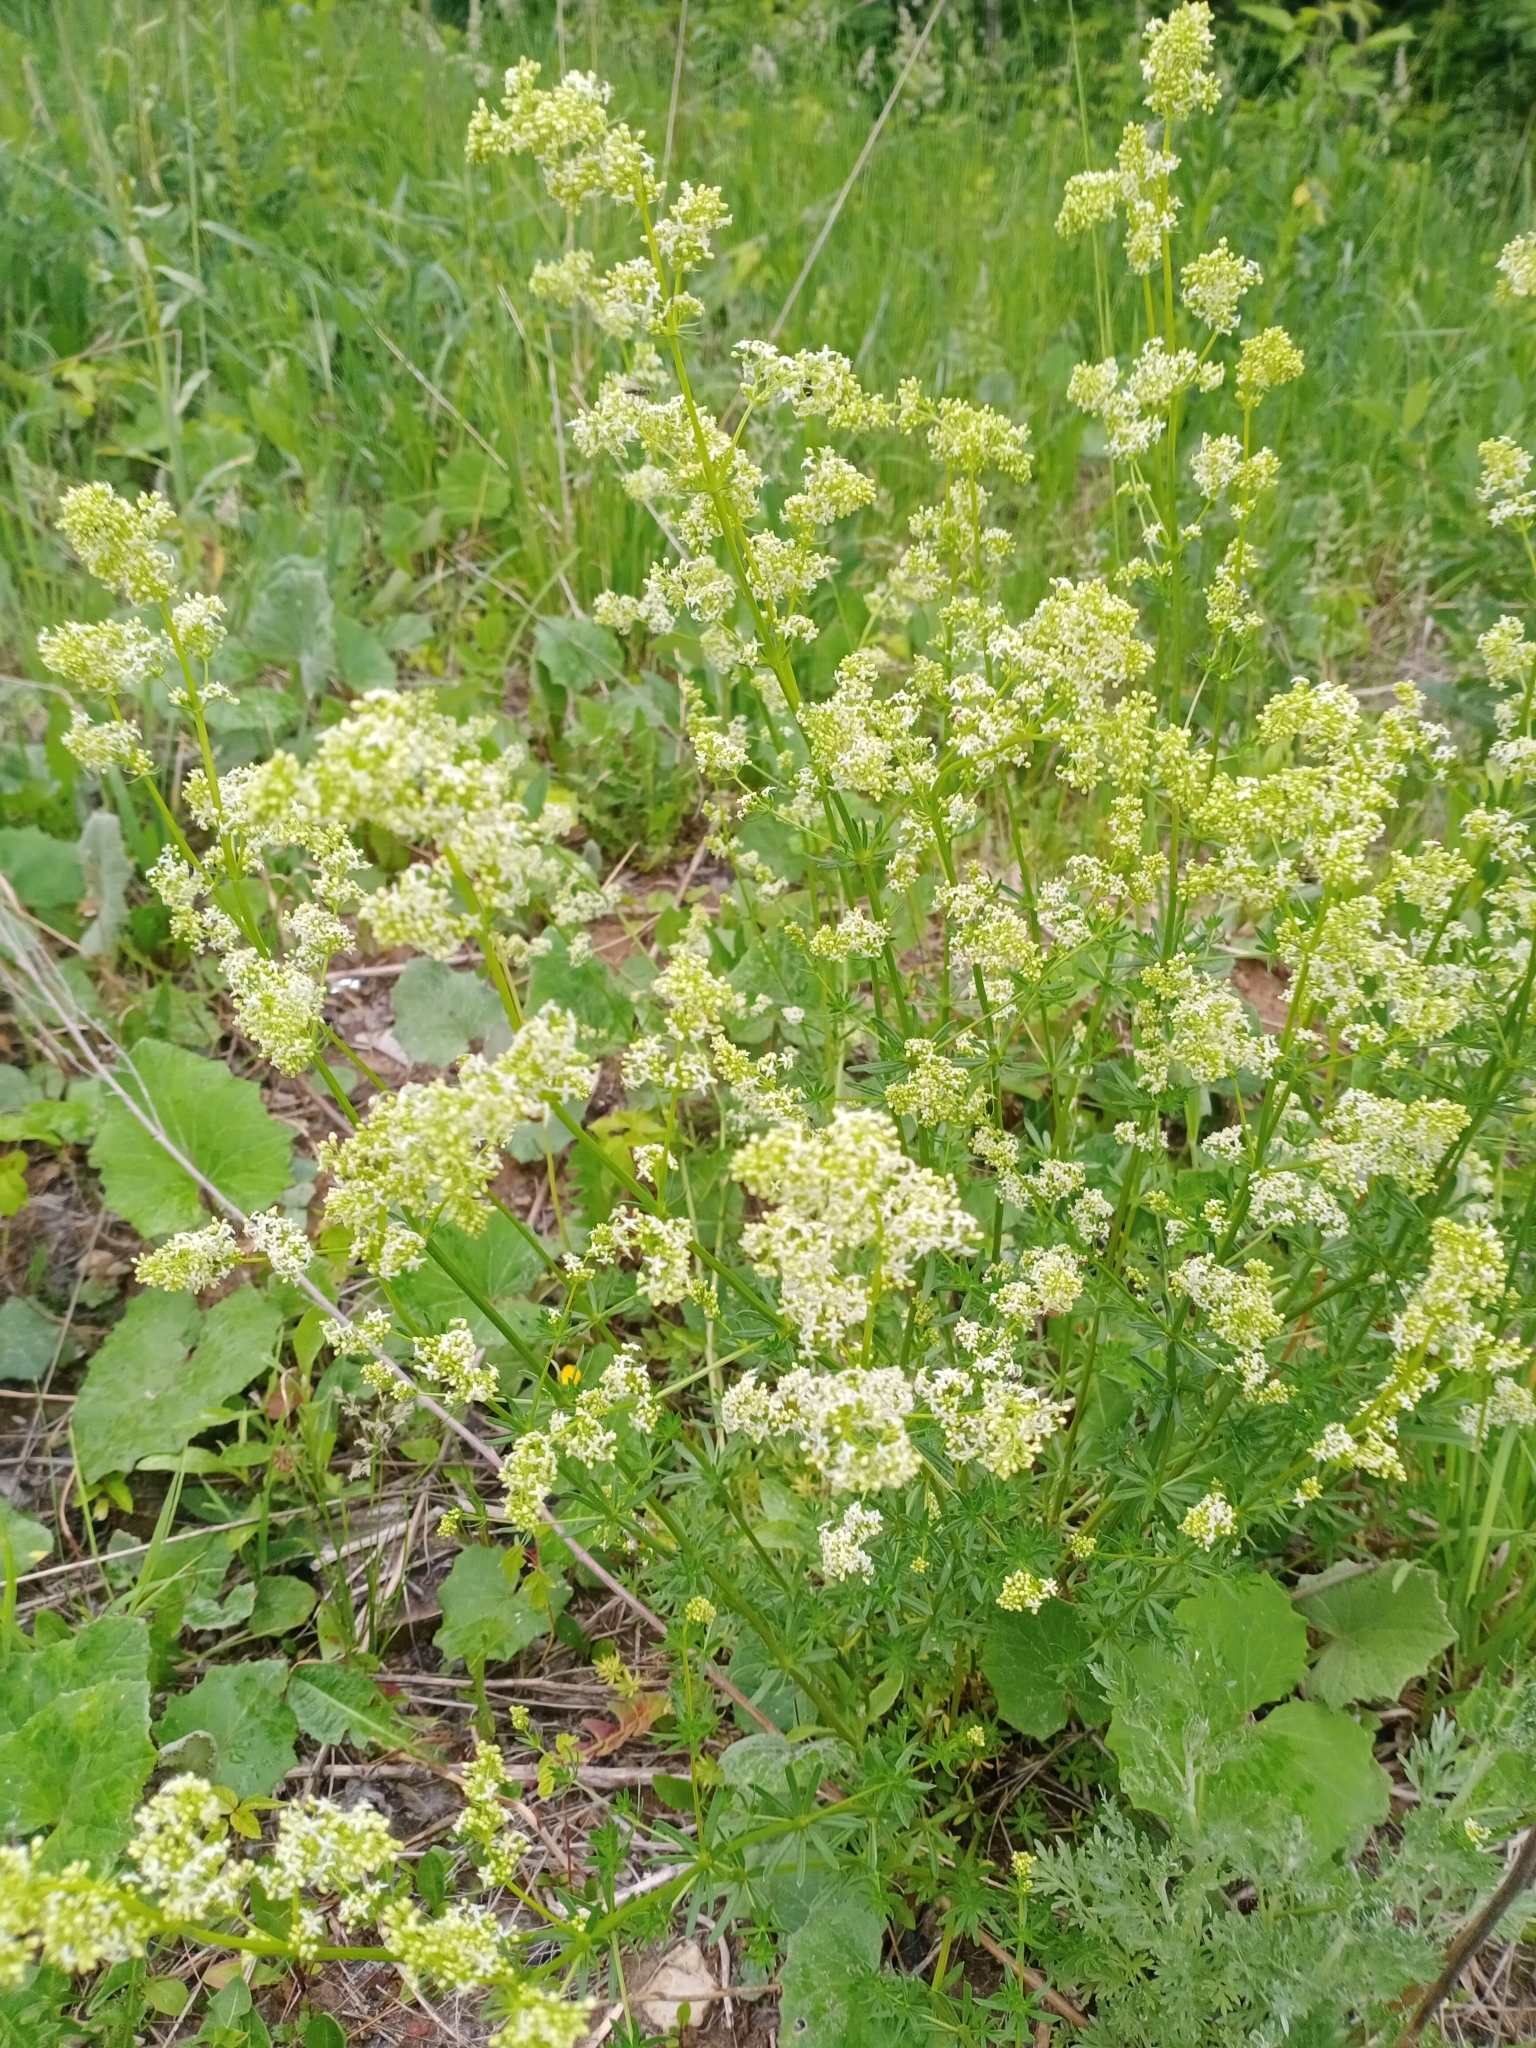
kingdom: Plantae
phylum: Tracheophyta
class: Magnoliopsida
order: Gentianales
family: Rubiaceae
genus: Galium
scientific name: Galium mollugo
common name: Hedge bedstraw
